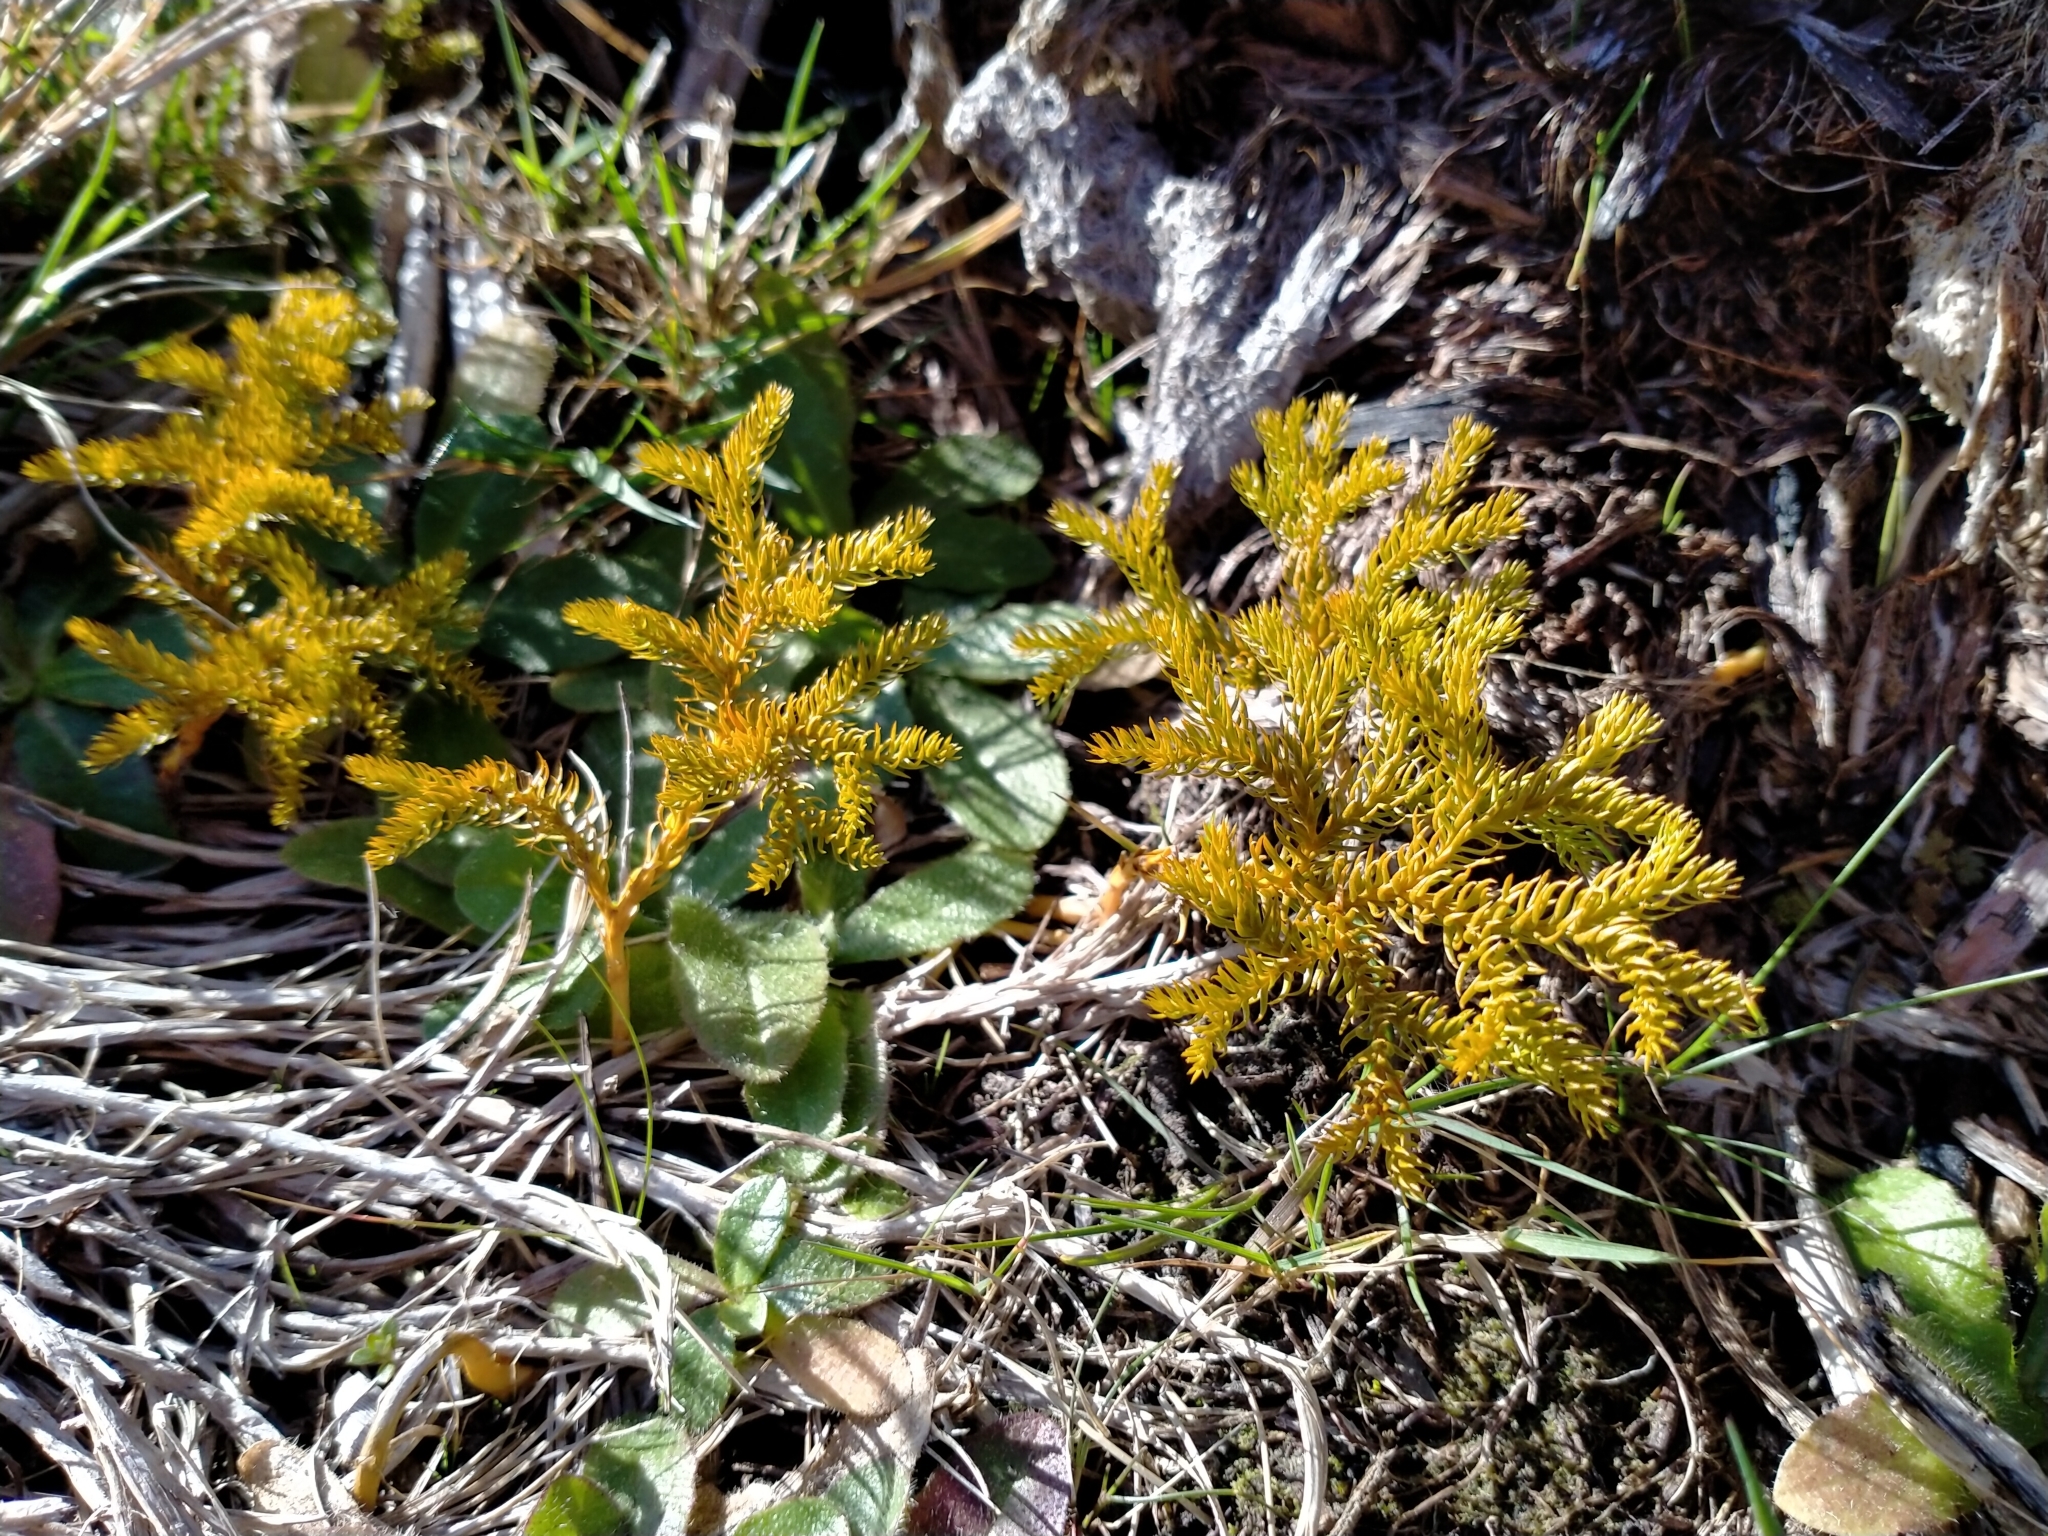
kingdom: Plantae
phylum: Tracheophyta
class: Lycopodiopsida
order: Lycopodiales
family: Lycopodiaceae
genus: Austrolycopodium
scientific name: Austrolycopodium fastigiatum
